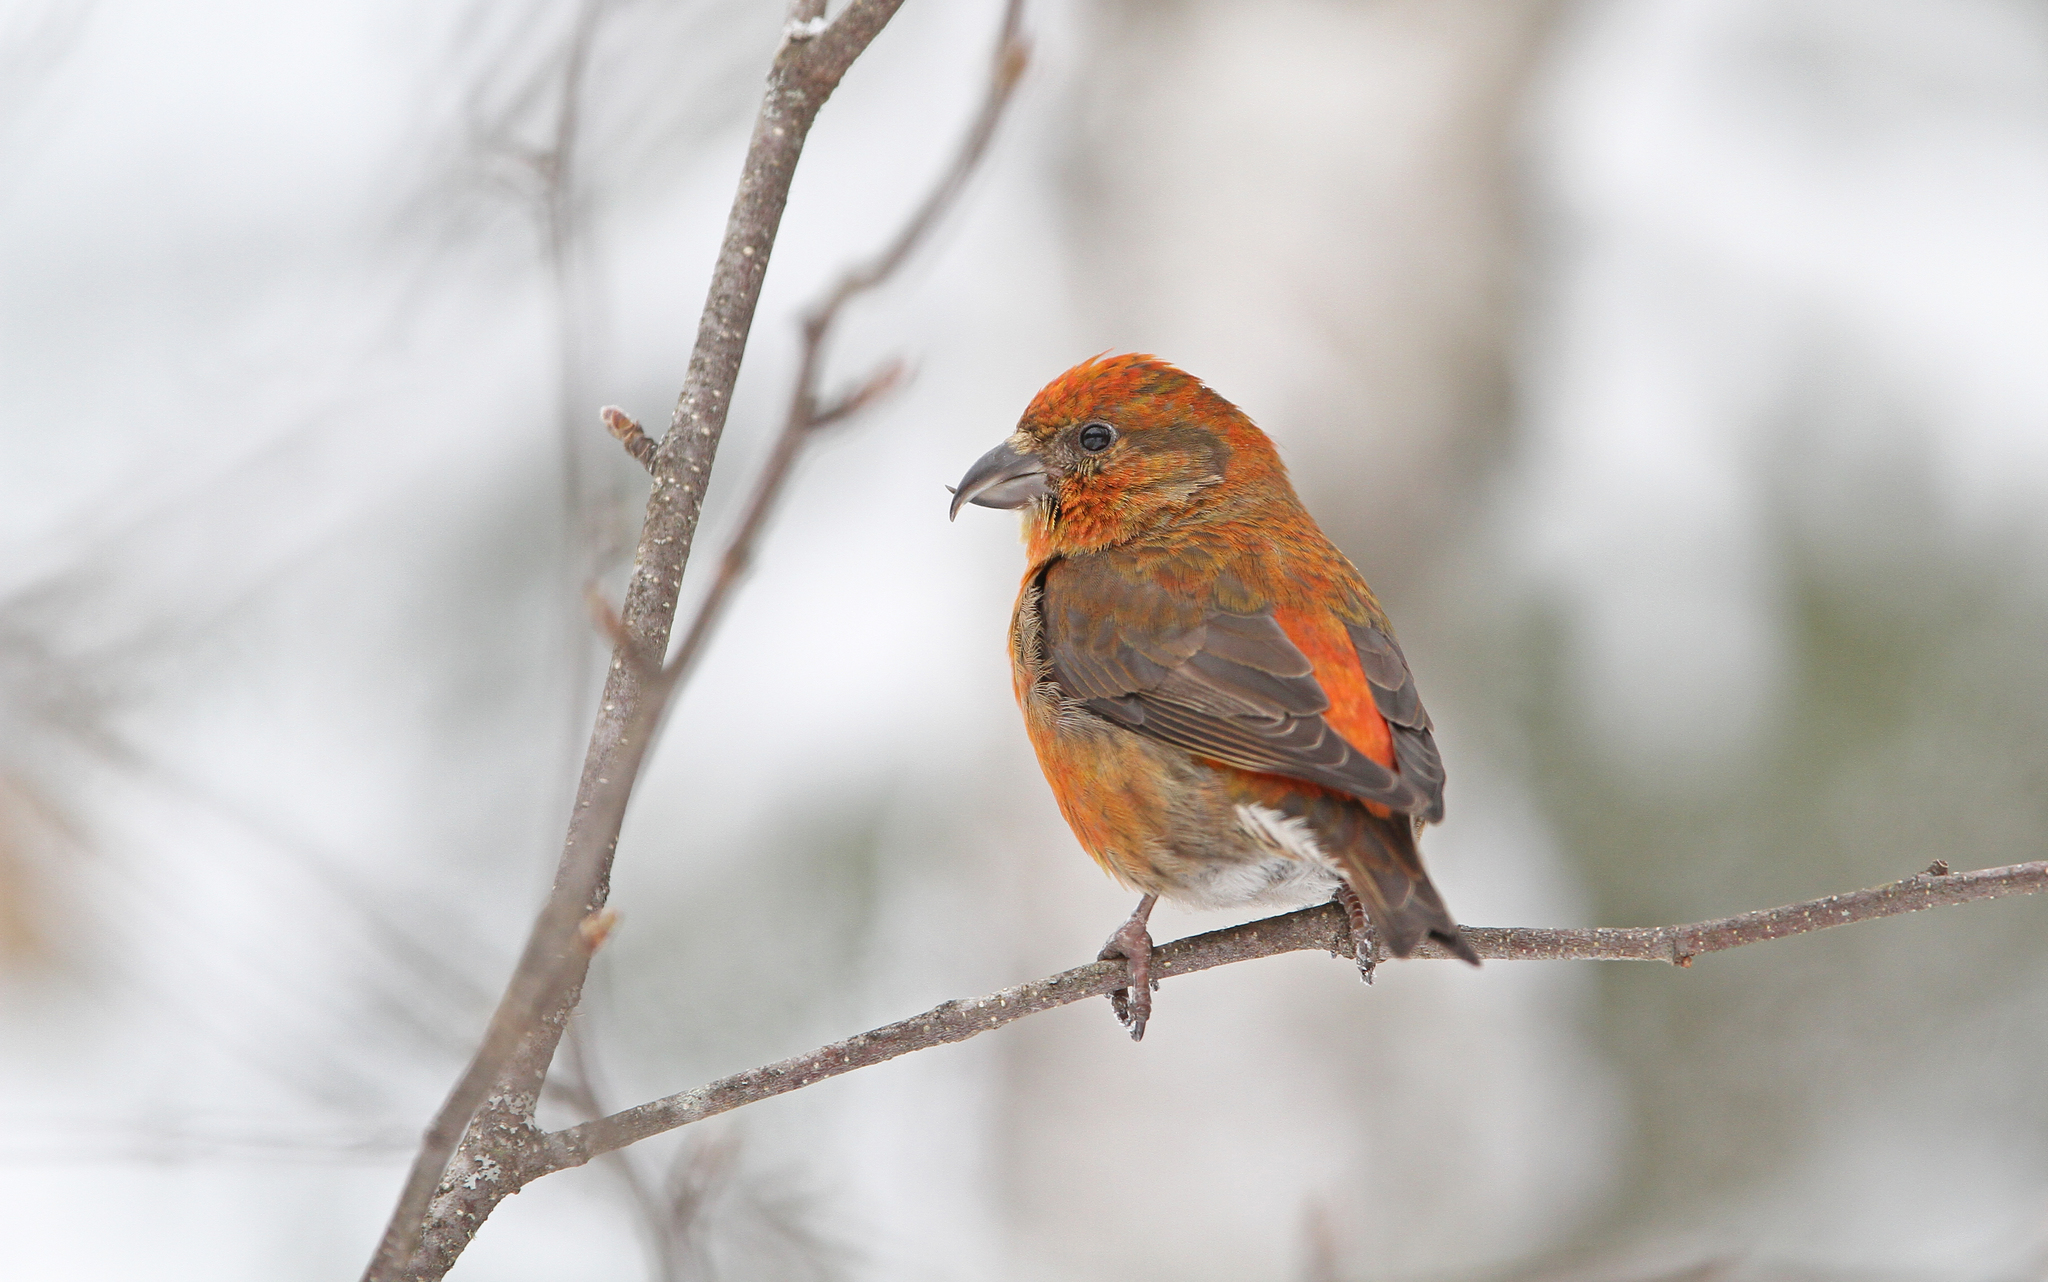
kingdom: Animalia
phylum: Chordata
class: Aves
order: Passeriformes
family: Fringillidae
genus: Loxia
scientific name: Loxia curvirostra
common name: Red crossbill
